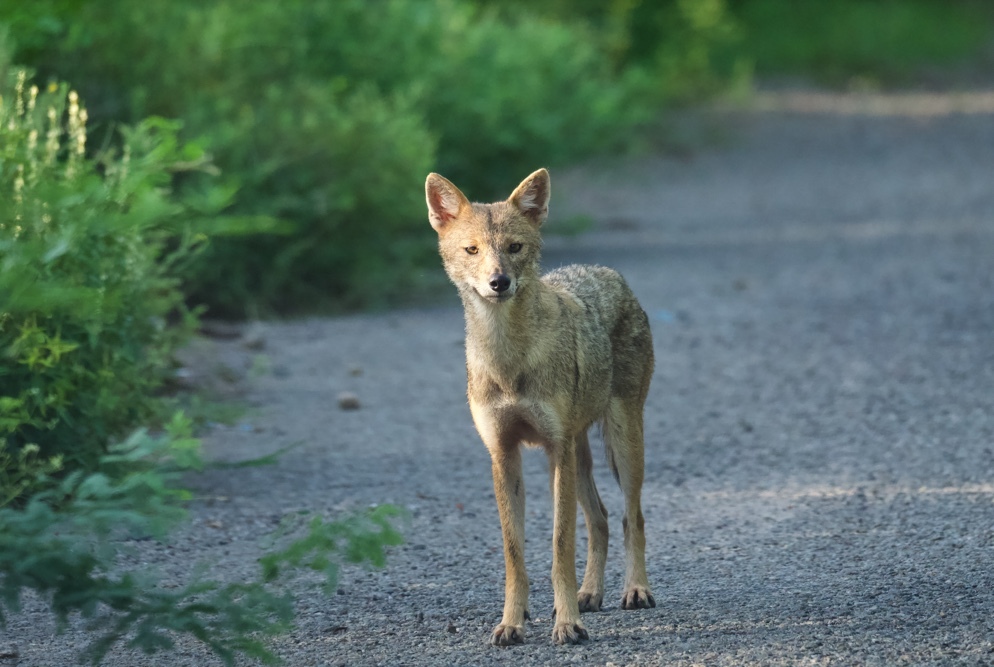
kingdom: Animalia
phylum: Chordata
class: Mammalia
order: Carnivora
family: Canidae
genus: Canis
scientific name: Canis aureus
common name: Golden jackal
